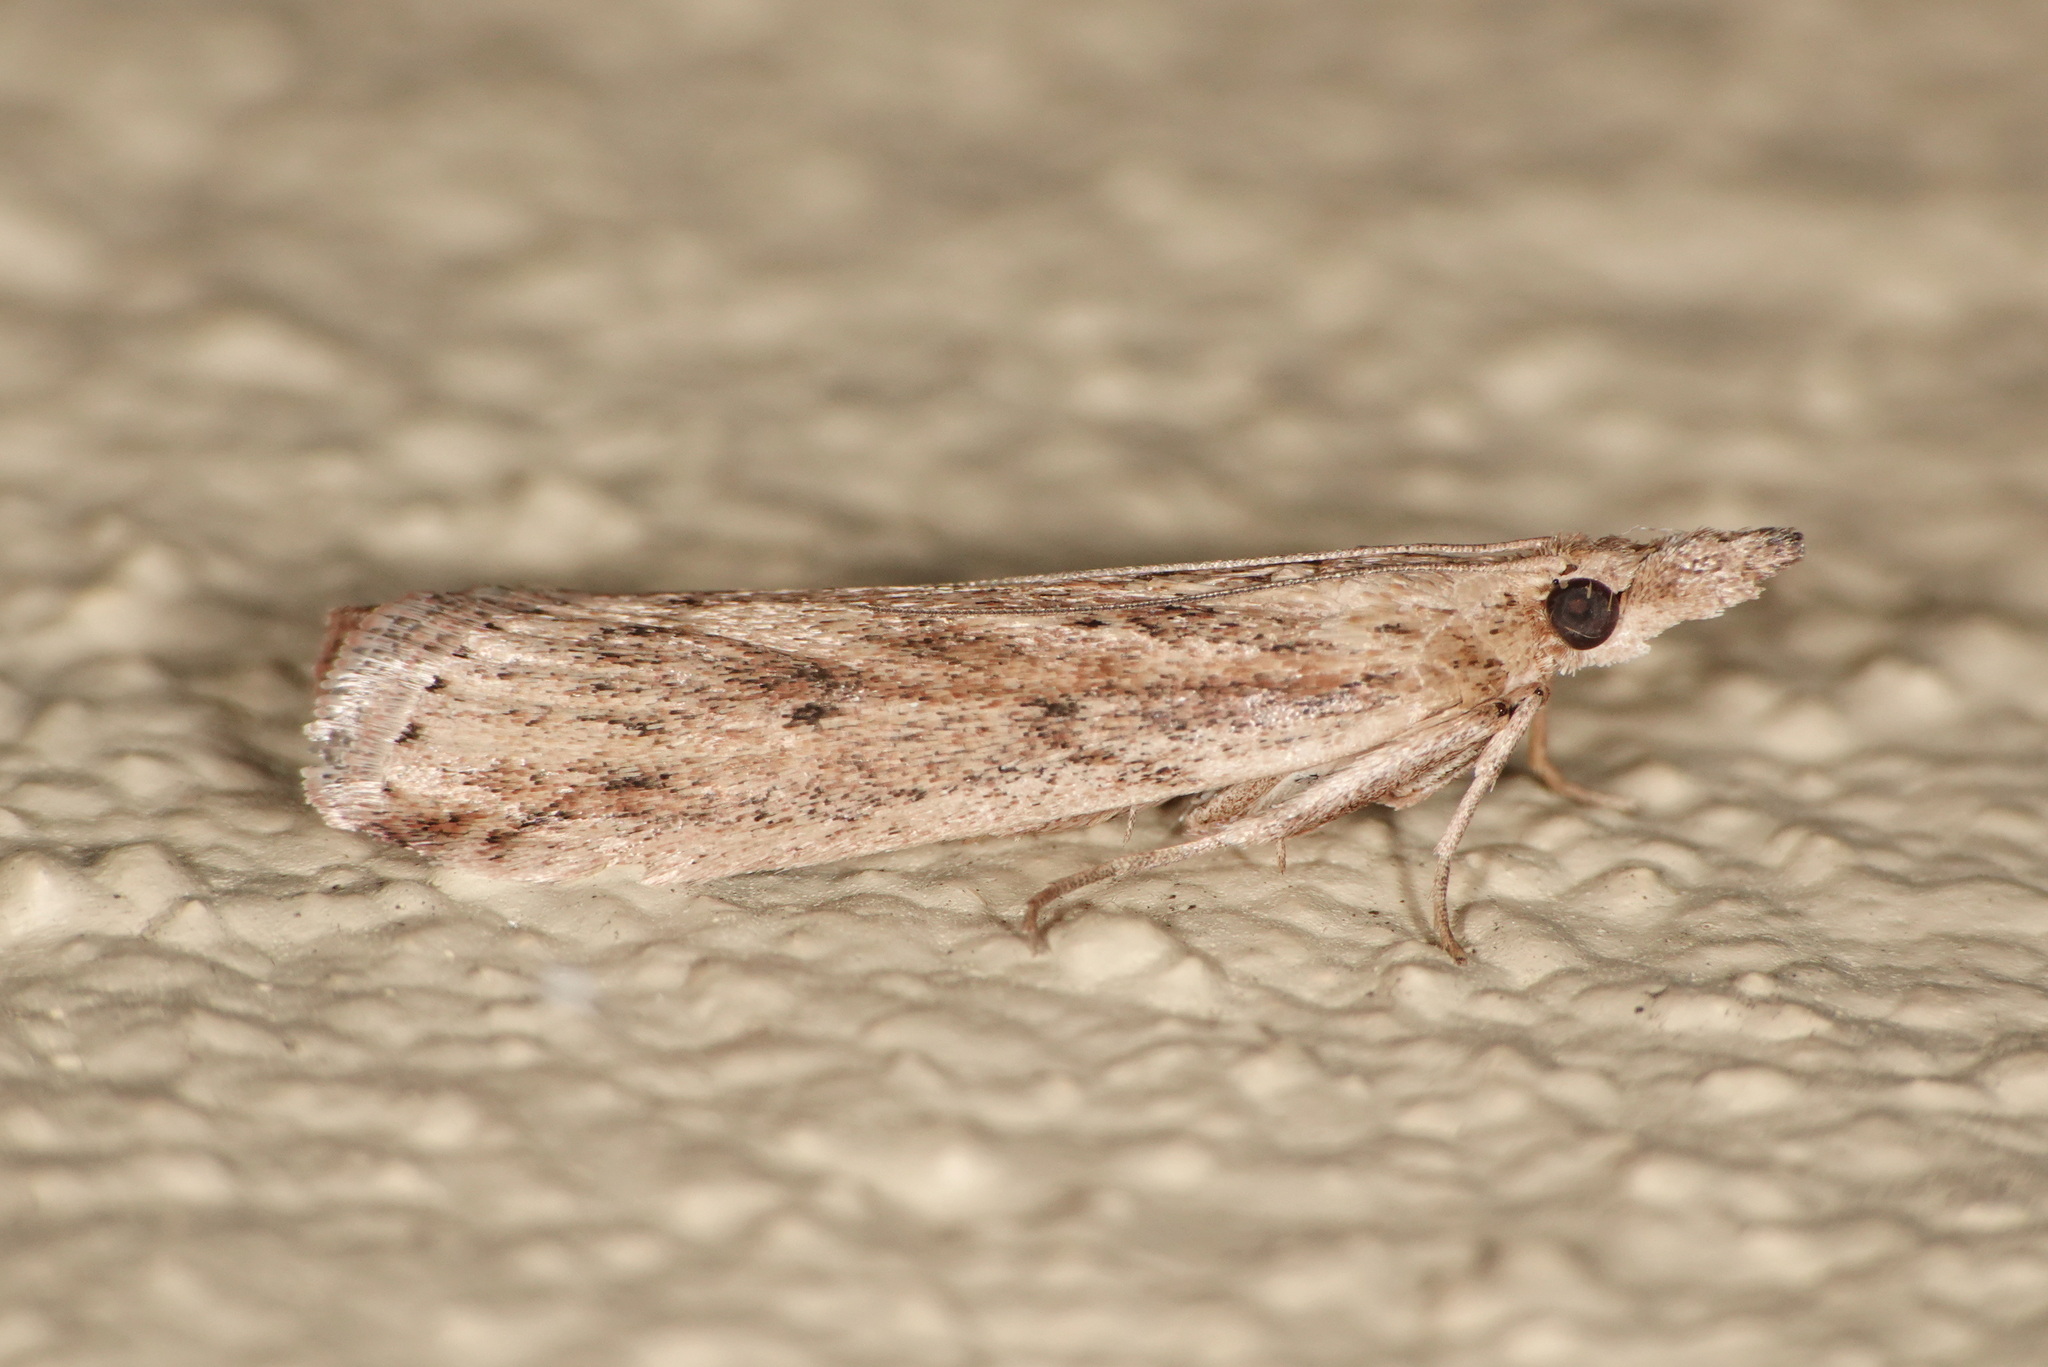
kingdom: Animalia
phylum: Arthropoda
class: Insecta
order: Lepidoptera
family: Pyralidae
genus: Faveria
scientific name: Faveria tritalis
